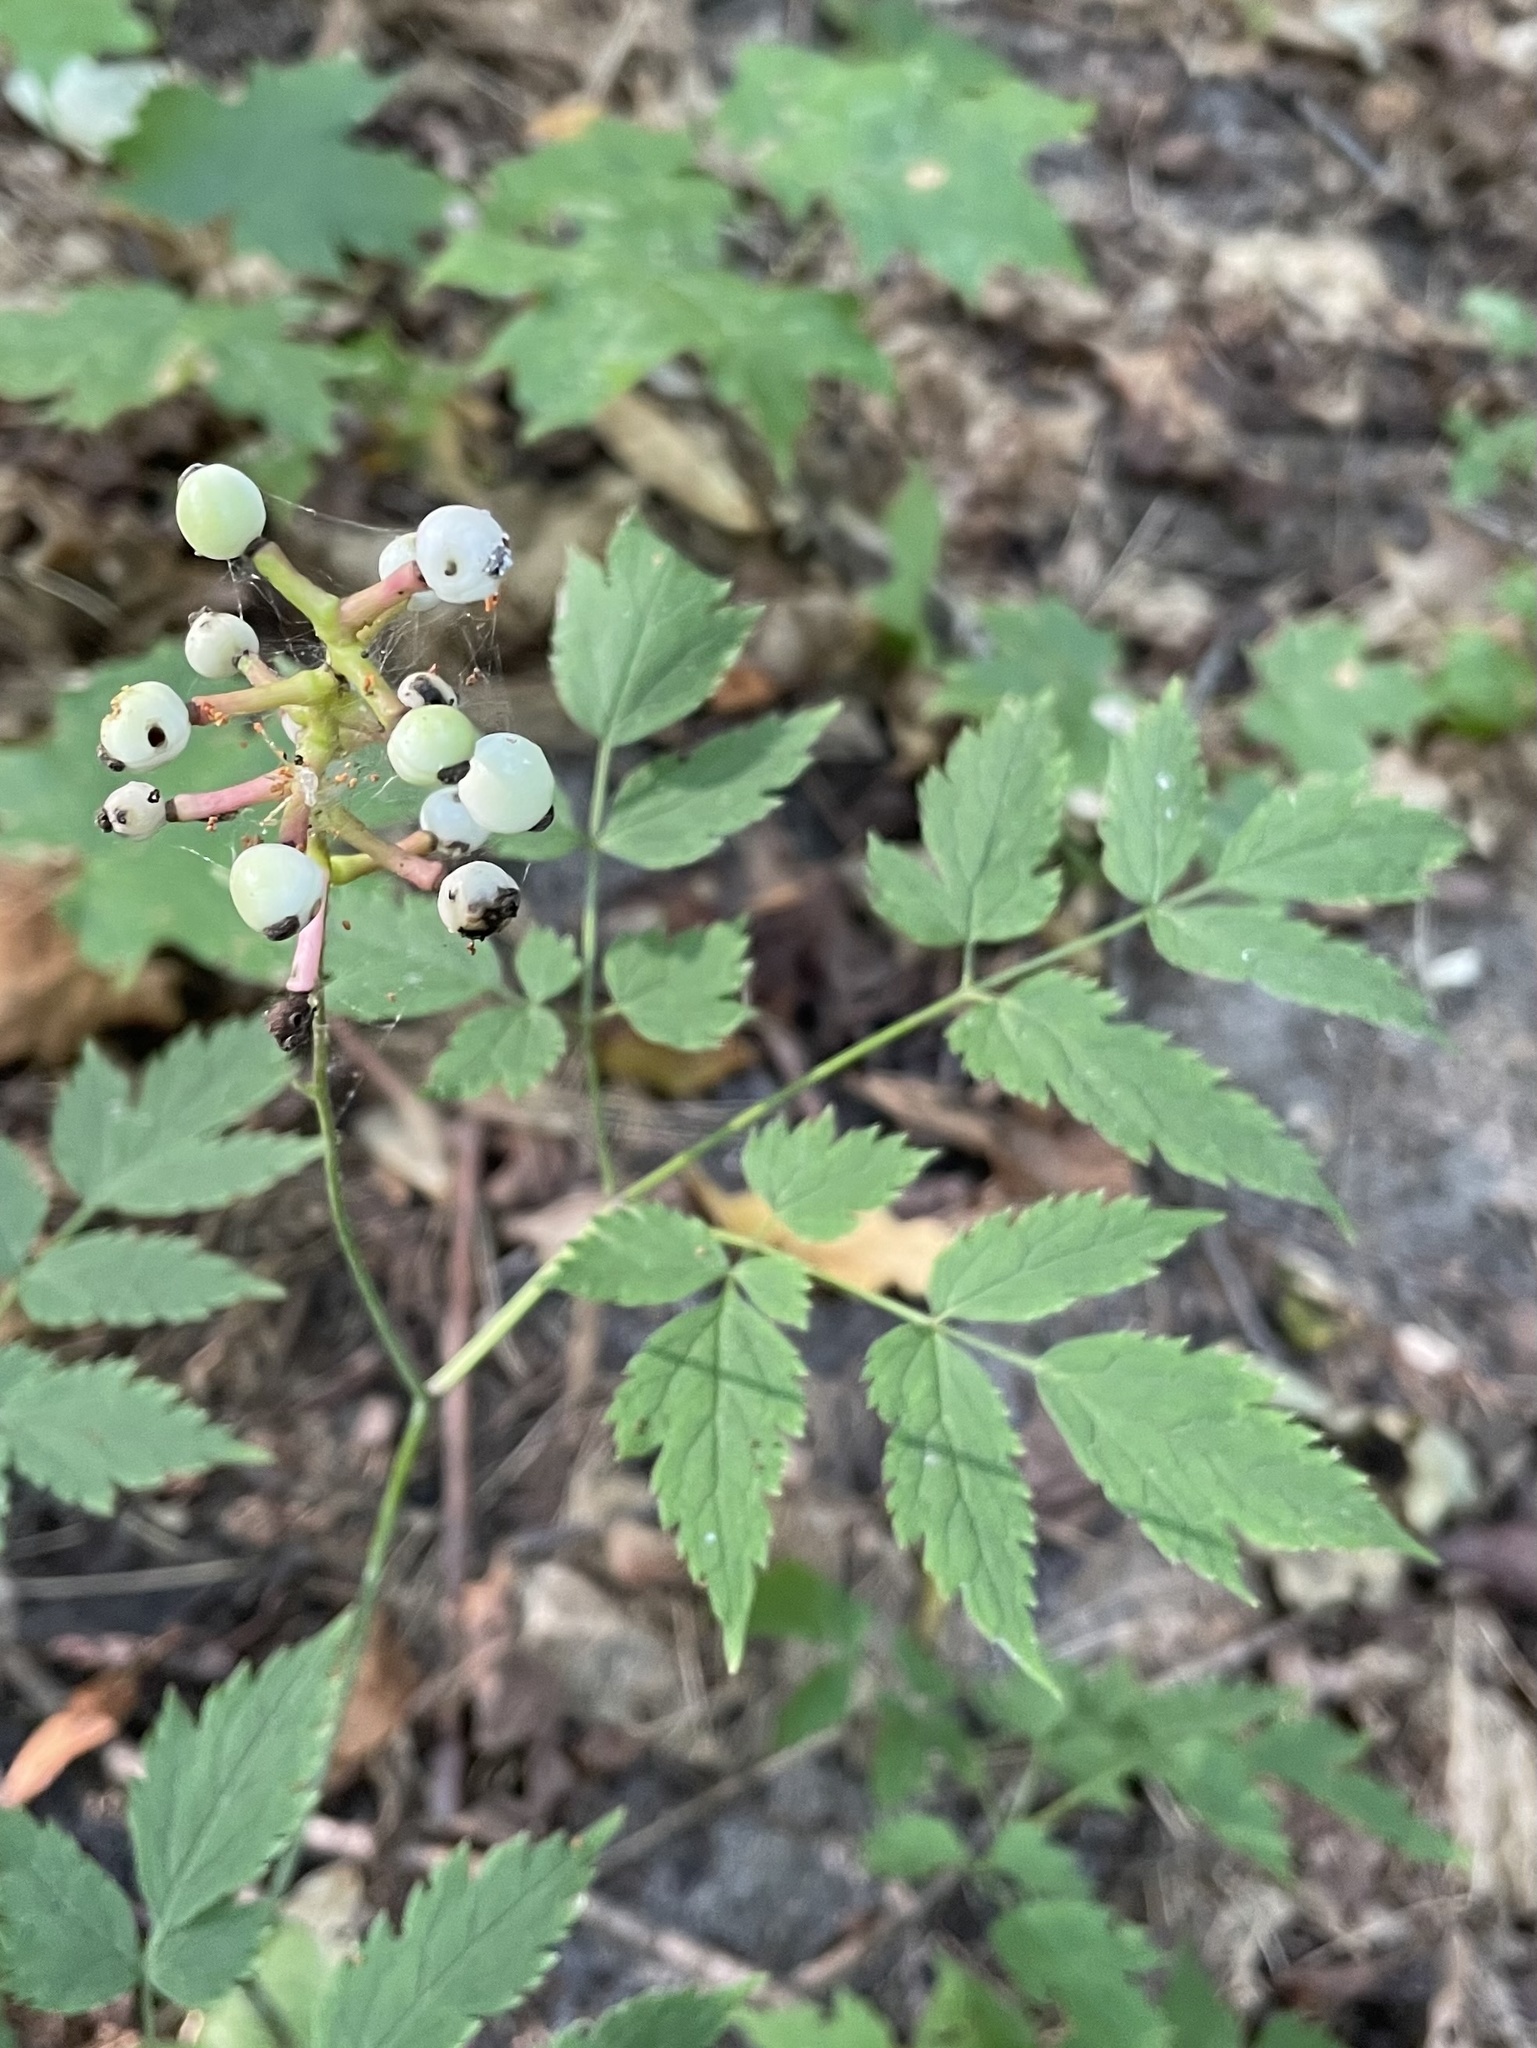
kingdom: Plantae
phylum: Tracheophyta
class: Magnoliopsida
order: Ranunculales
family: Ranunculaceae
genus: Actaea
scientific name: Actaea pachypoda
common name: Doll's-eyes
